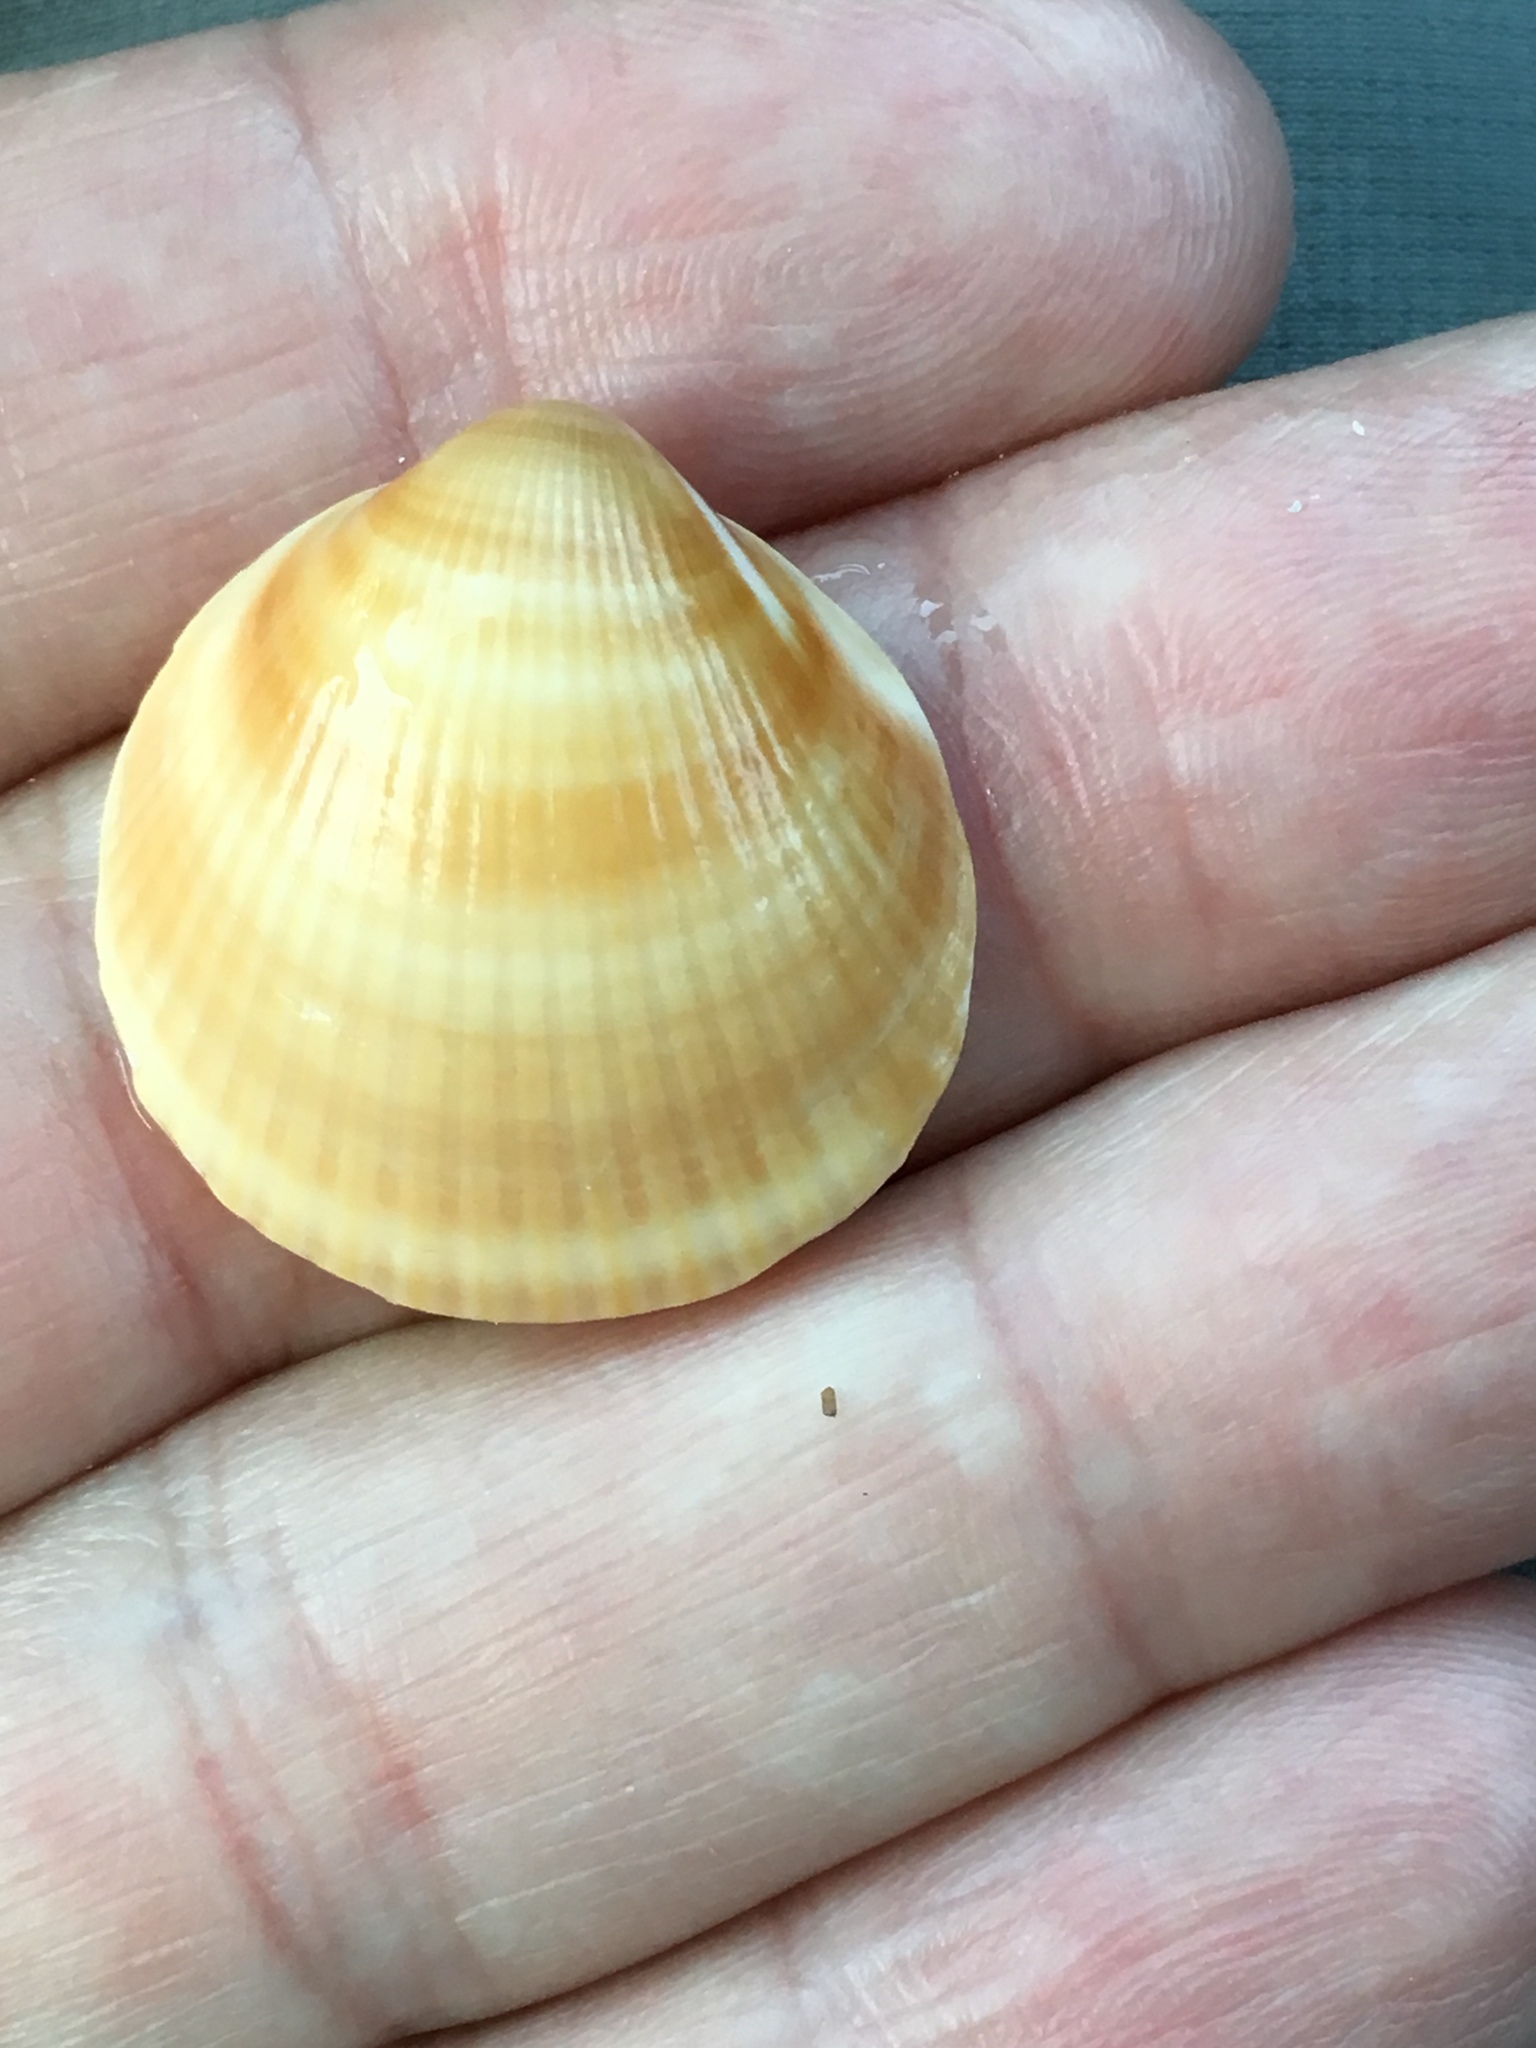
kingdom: Animalia
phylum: Mollusca
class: Bivalvia
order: Arcida
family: Glycymerididae
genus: Glycymeris
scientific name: Glycymeris spectralis
